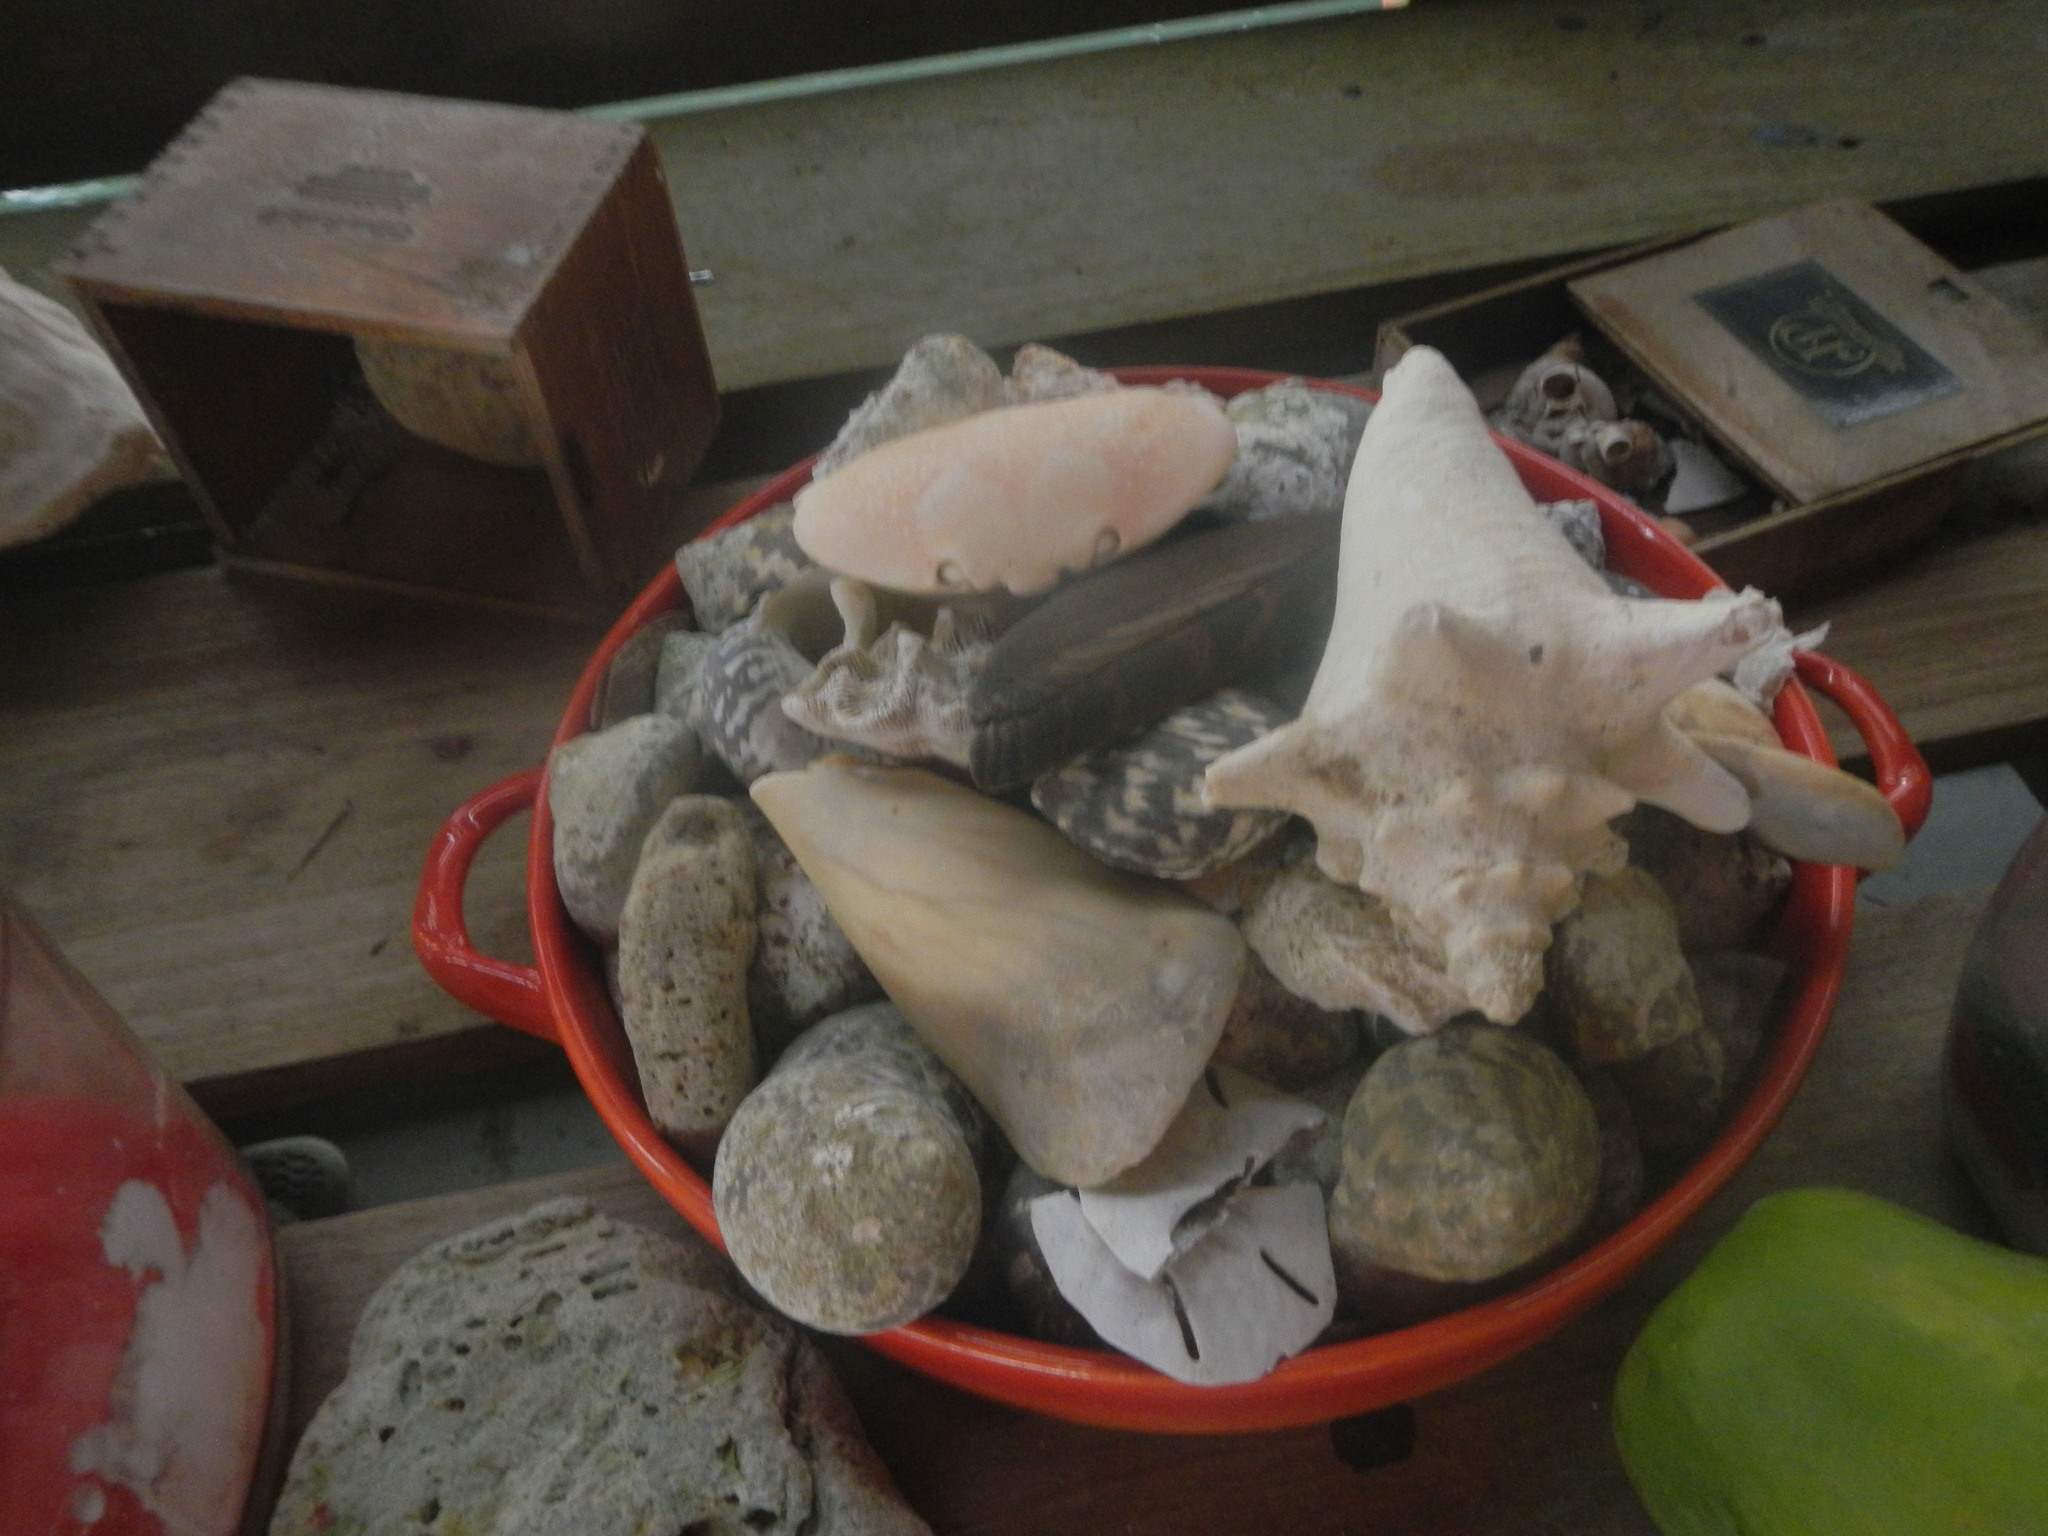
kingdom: Animalia
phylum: Mollusca
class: Gastropoda
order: Littorinimorpha
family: Strombidae
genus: Aliger
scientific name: Aliger gigas
